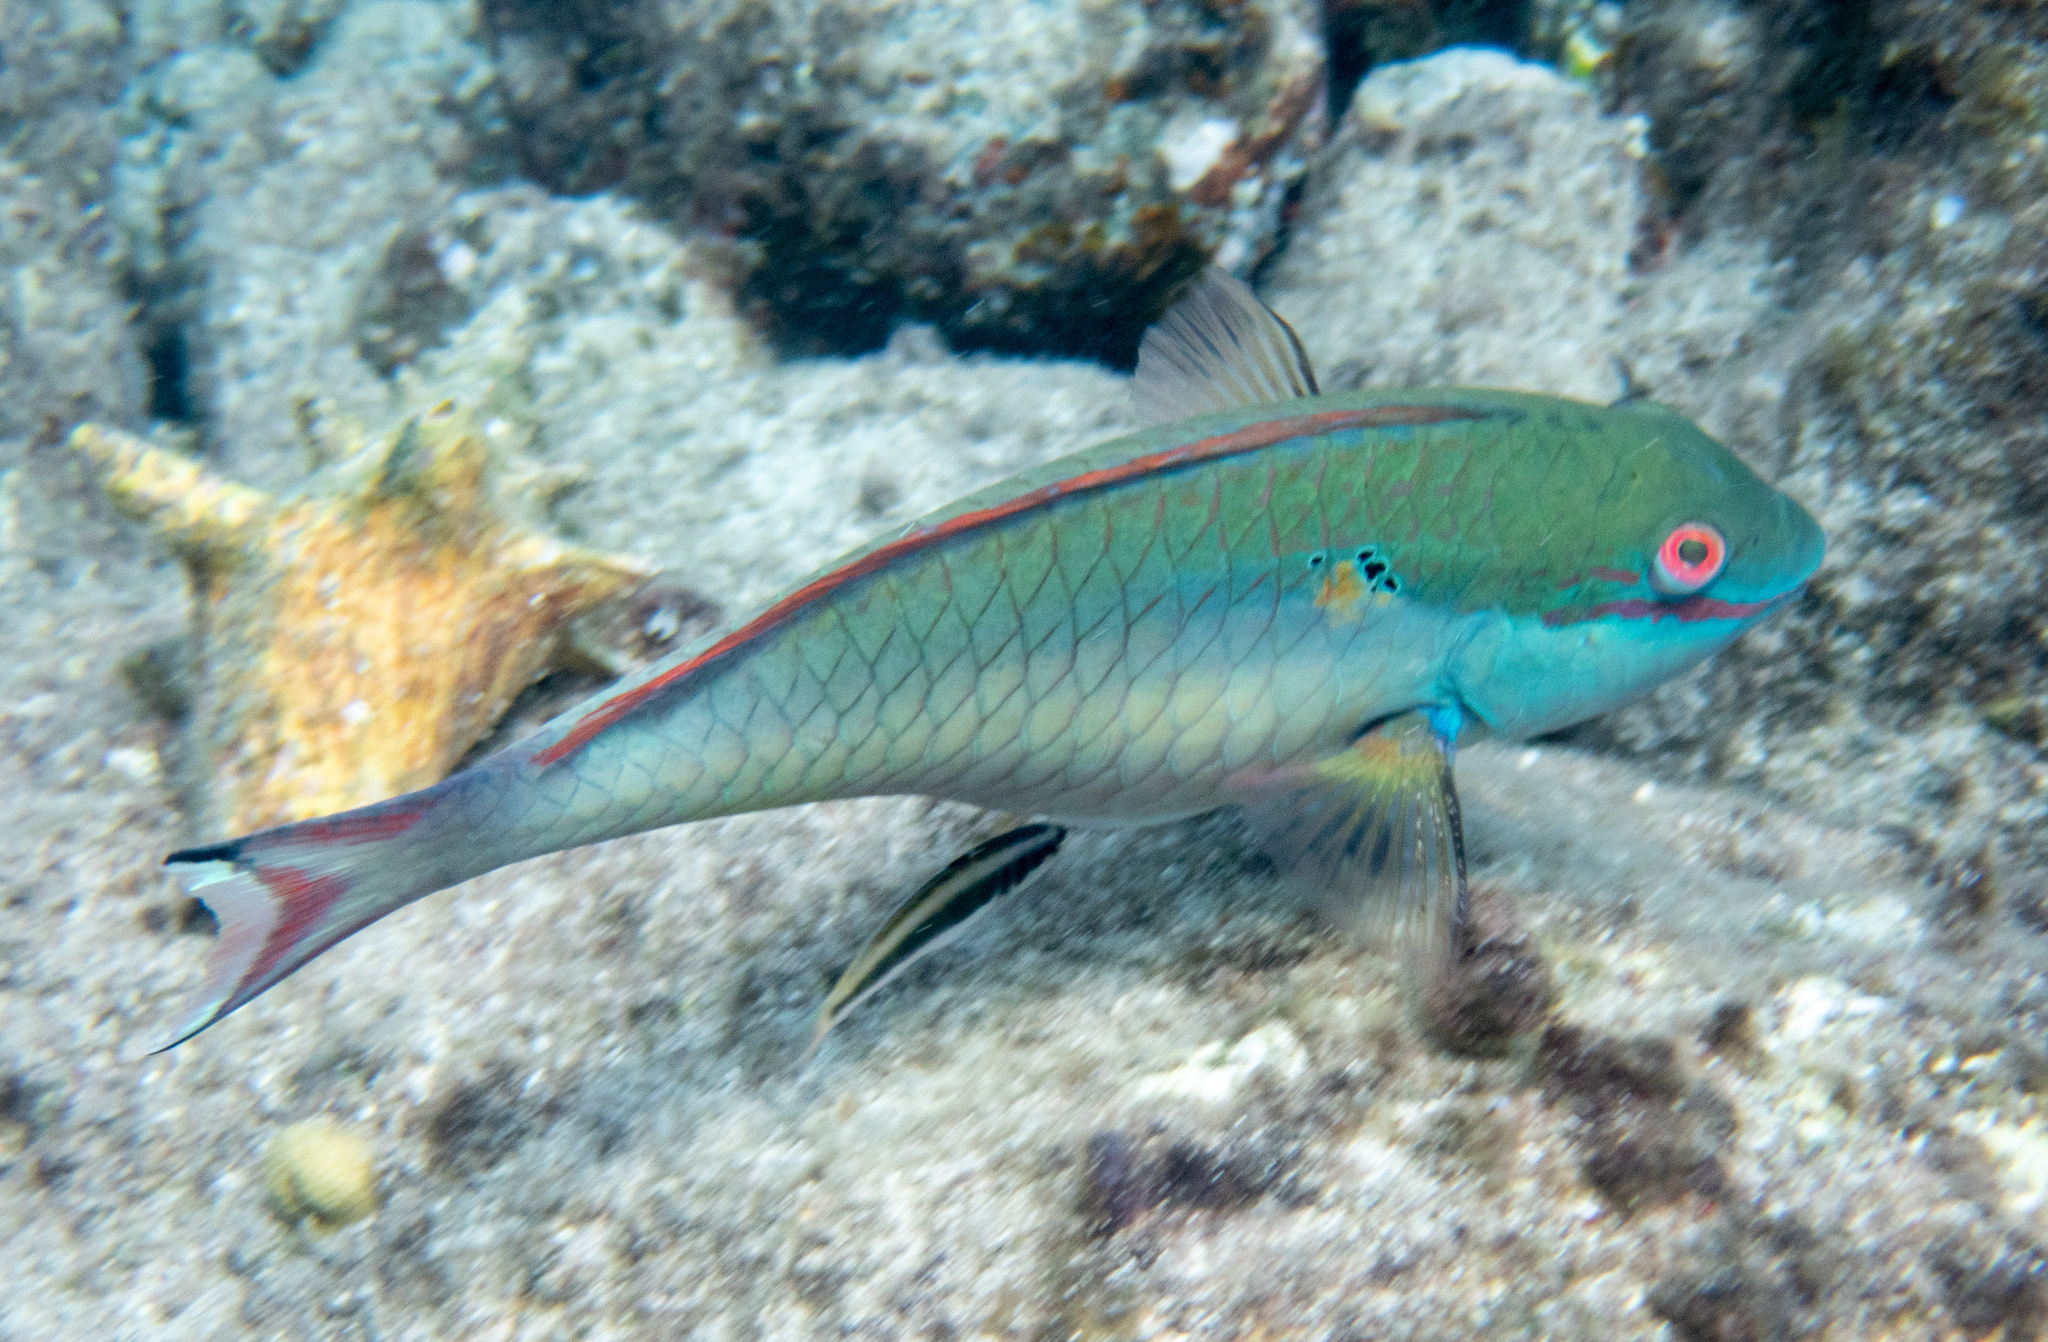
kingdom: Animalia
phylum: Chordata
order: Perciformes
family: Scaridae
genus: Sparisoma
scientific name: Sparisoma aurofrenatum
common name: Redband parrotfish
